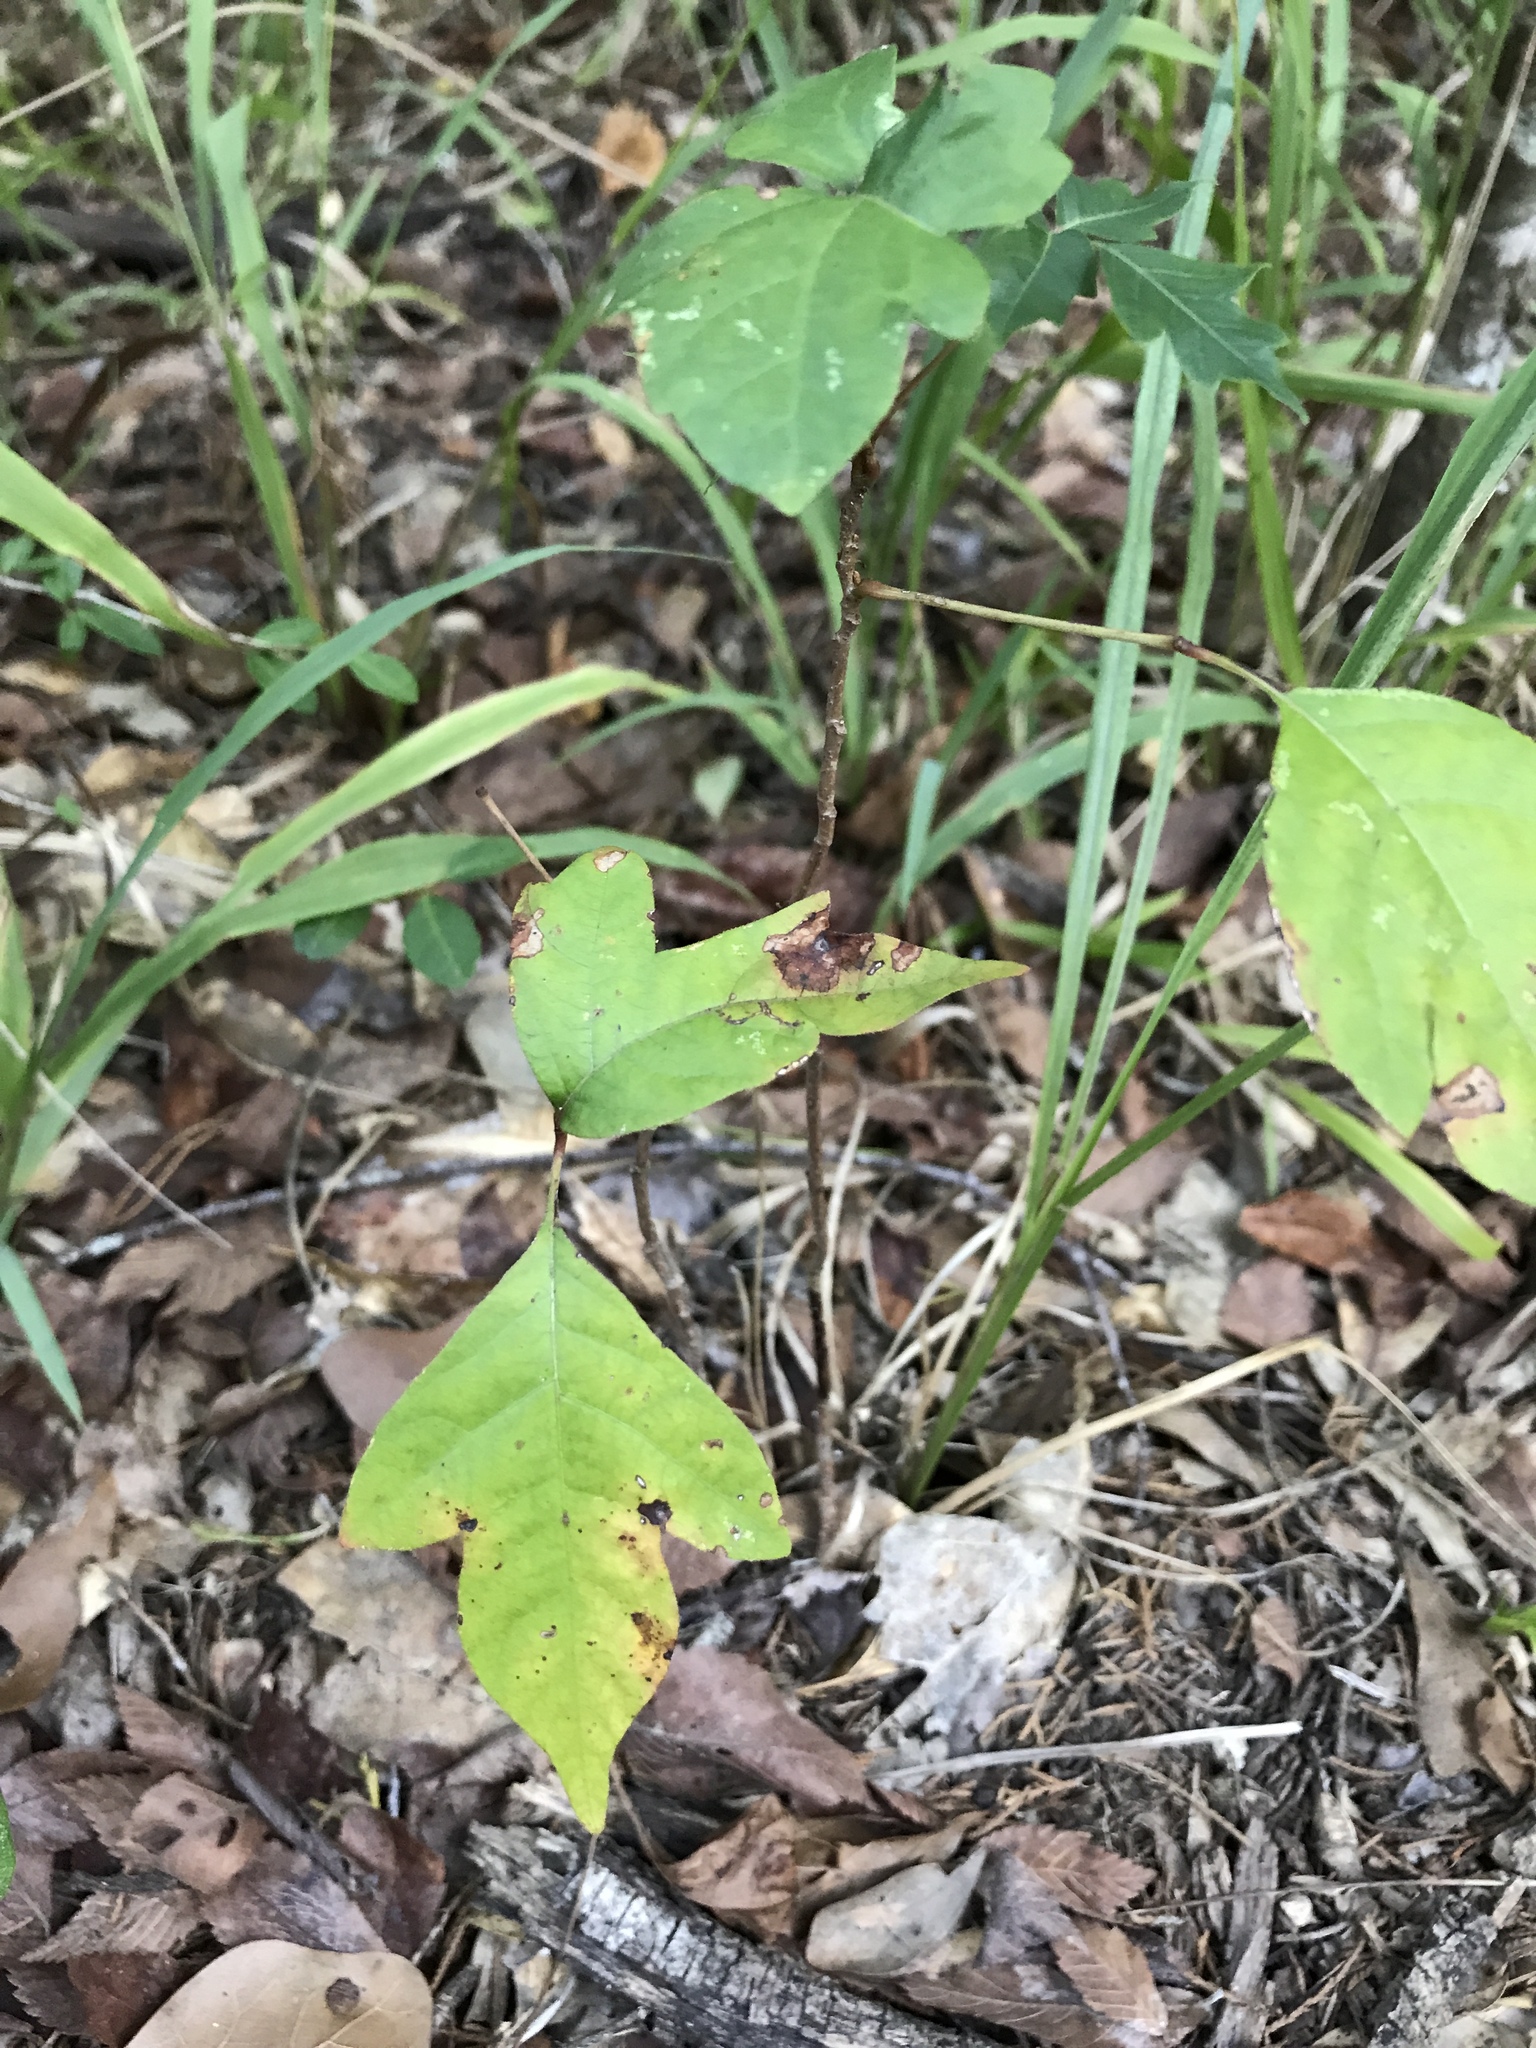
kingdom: Plantae
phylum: Tracheophyta
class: Magnoliopsida
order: Sapindales
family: Anacardiaceae
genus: Toxicodendron
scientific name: Toxicodendron radicans
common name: Poison ivy
